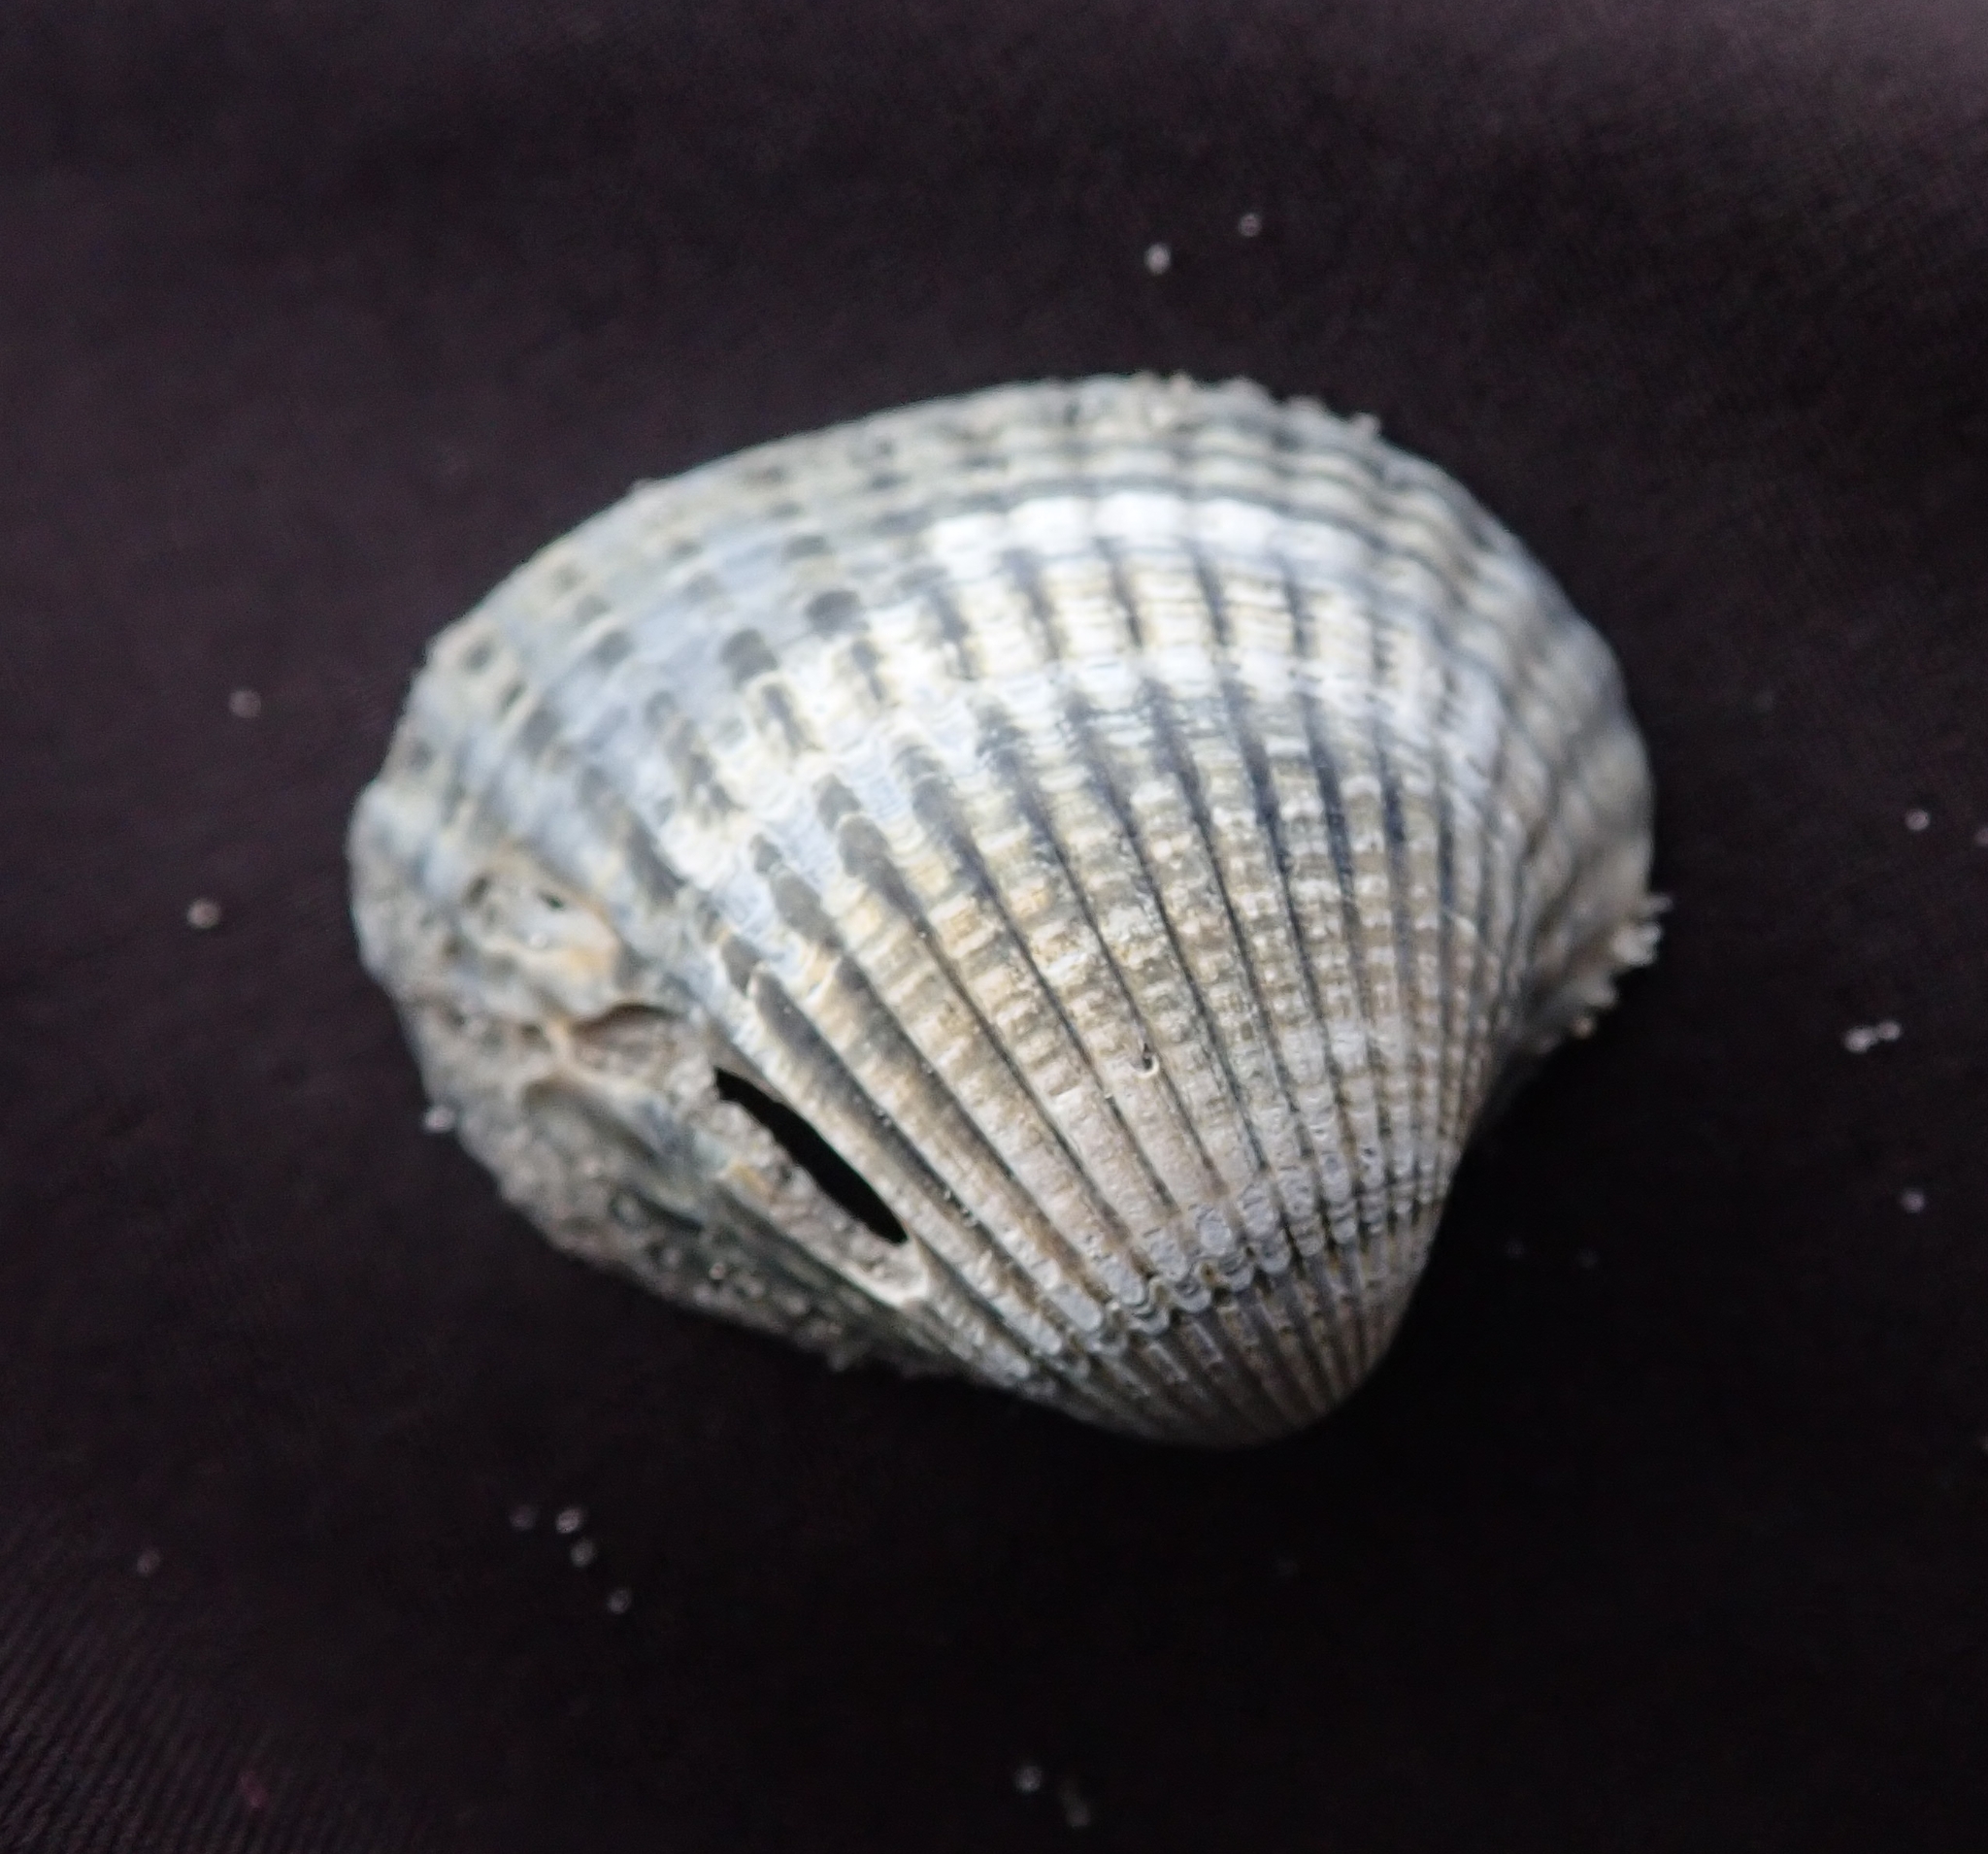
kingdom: Animalia
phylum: Mollusca
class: Bivalvia
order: Cardiida
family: Cardiidae
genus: Cerastoderma
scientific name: Cerastoderma edule
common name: Common cockle
